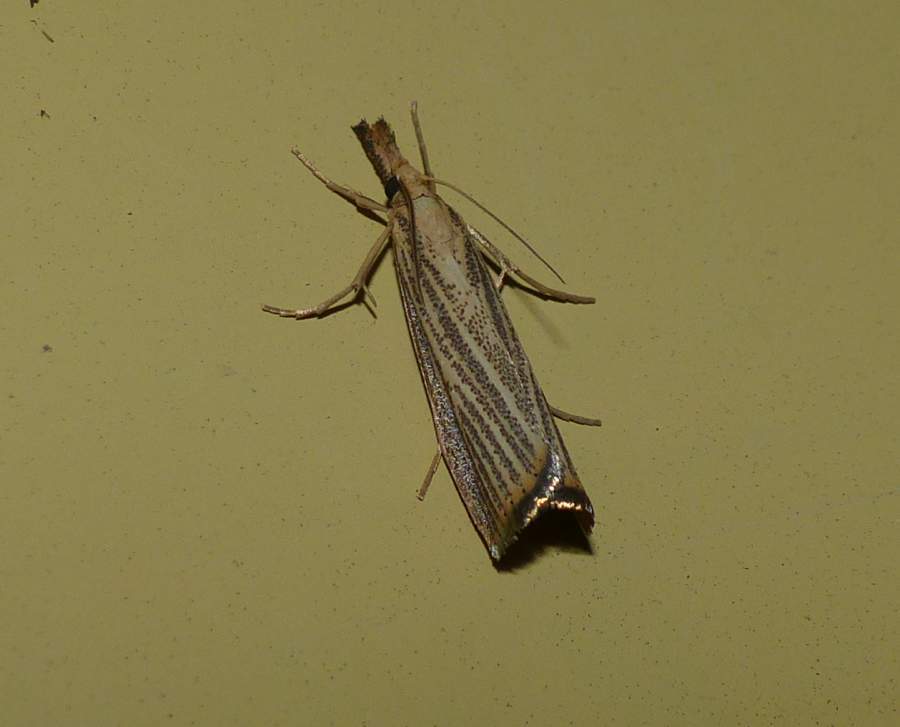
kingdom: Animalia
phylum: Arthropoda
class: Insecta
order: Lepidoptera
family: Crambidae
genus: Agriphila
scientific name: Agriphila vulgivagellus
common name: Vagabond crambus moth
